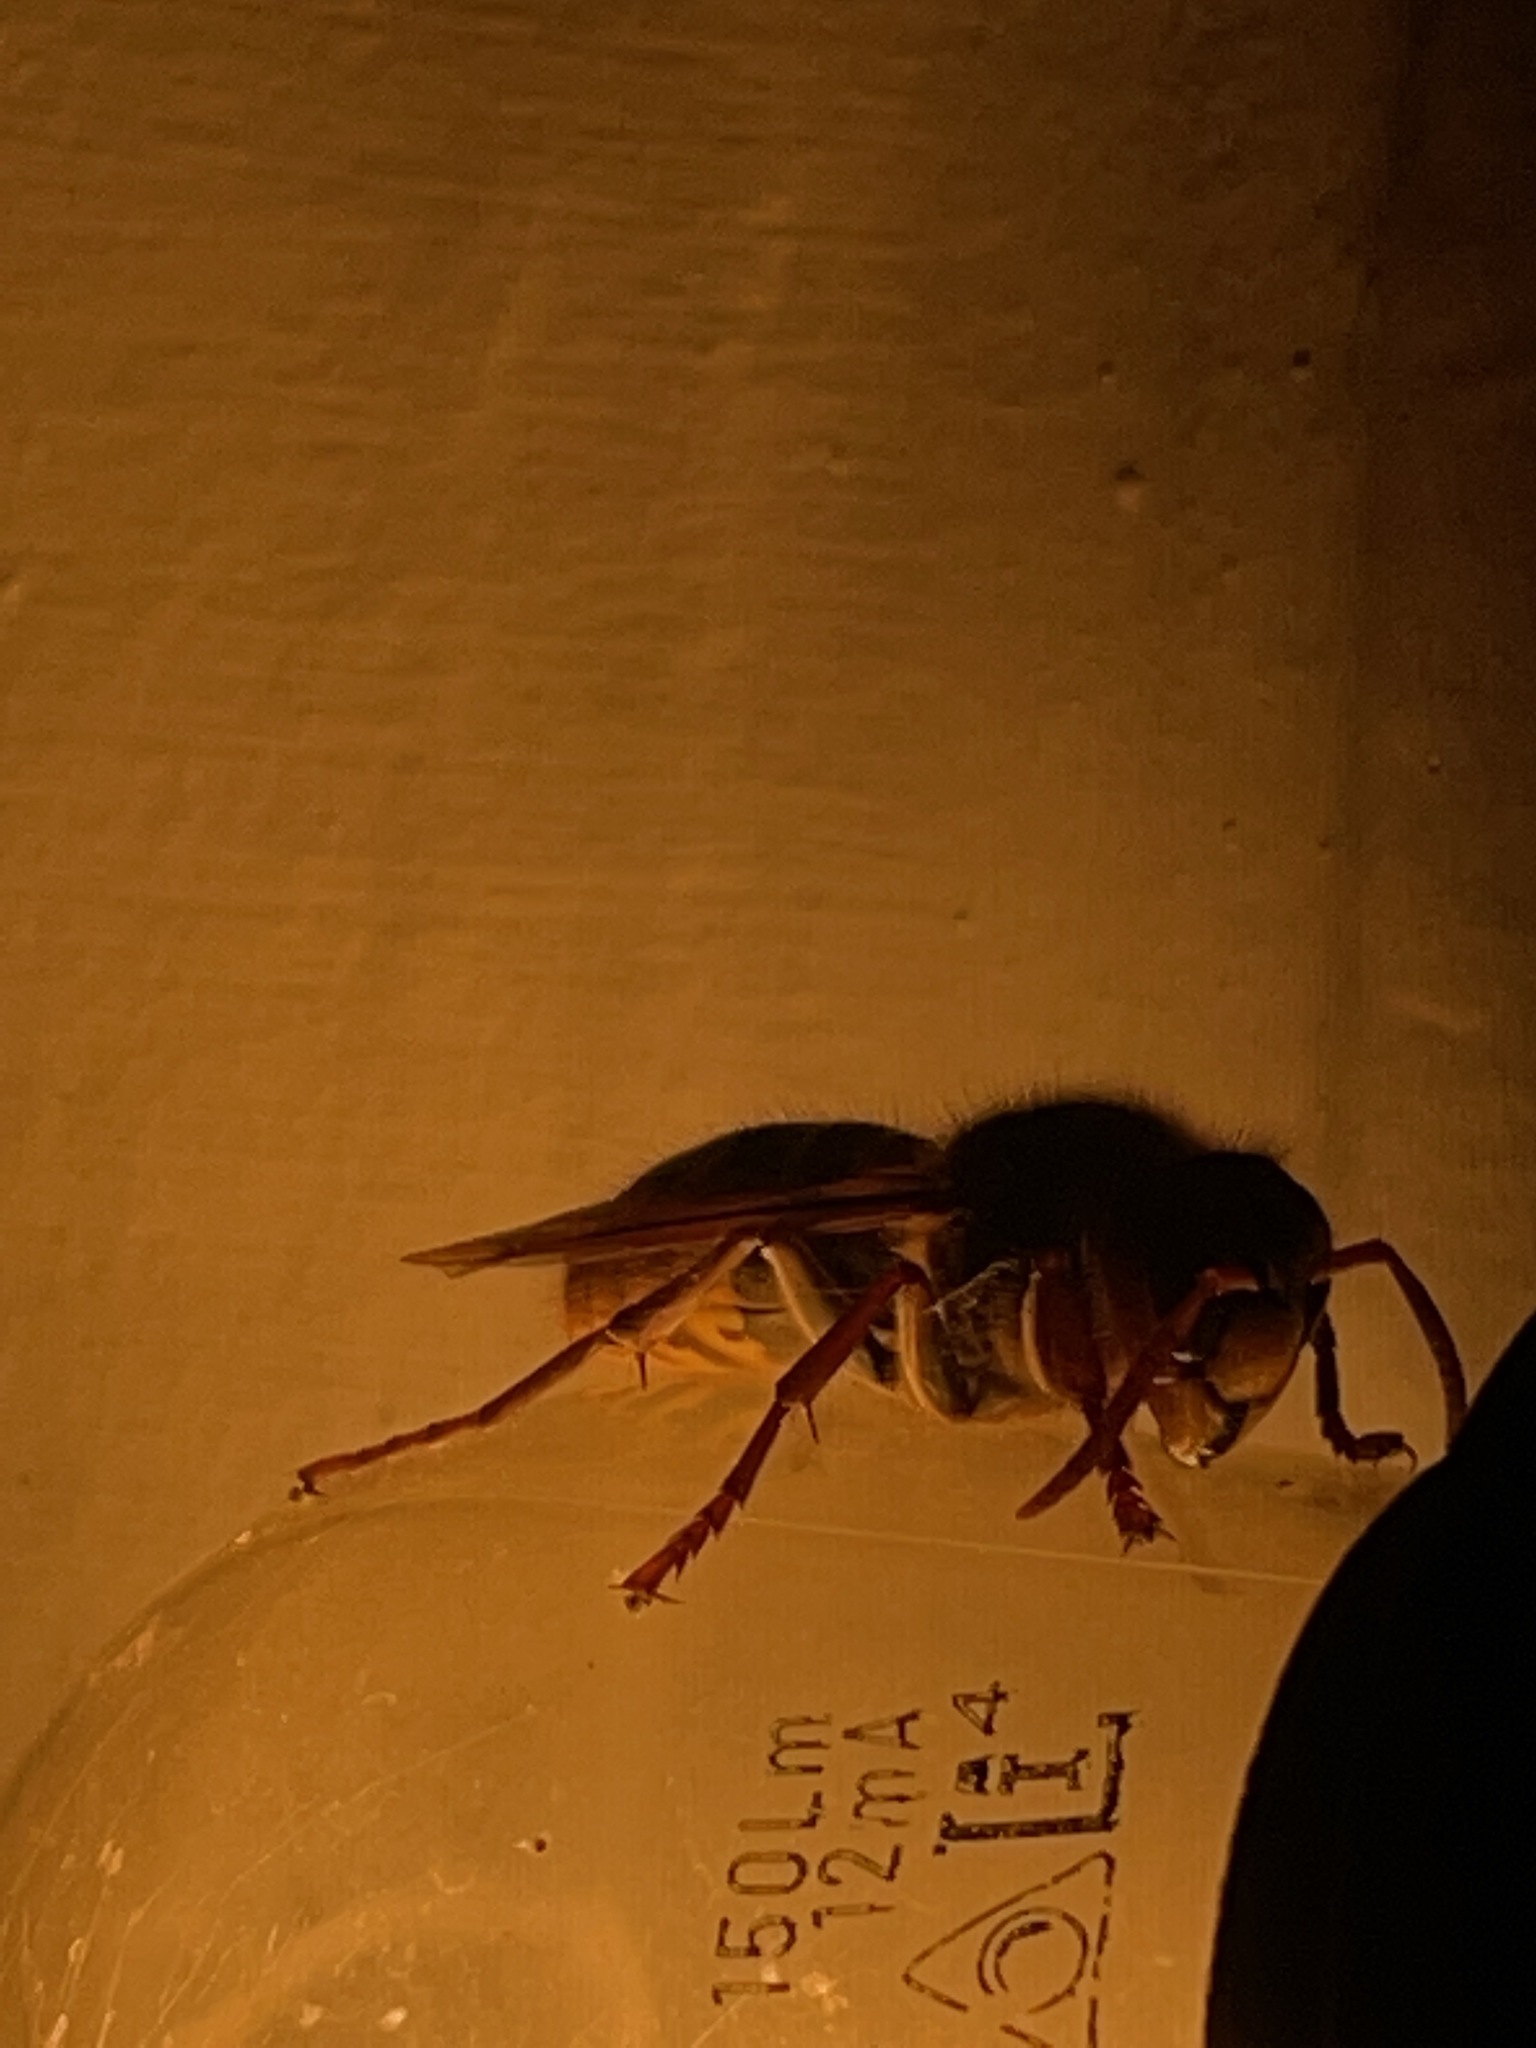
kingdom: Animalia
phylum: Arthropoda
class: Insecta
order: Hymenoptera
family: Vespidae
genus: Vespa
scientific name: Vespa crabro
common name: Hornet
